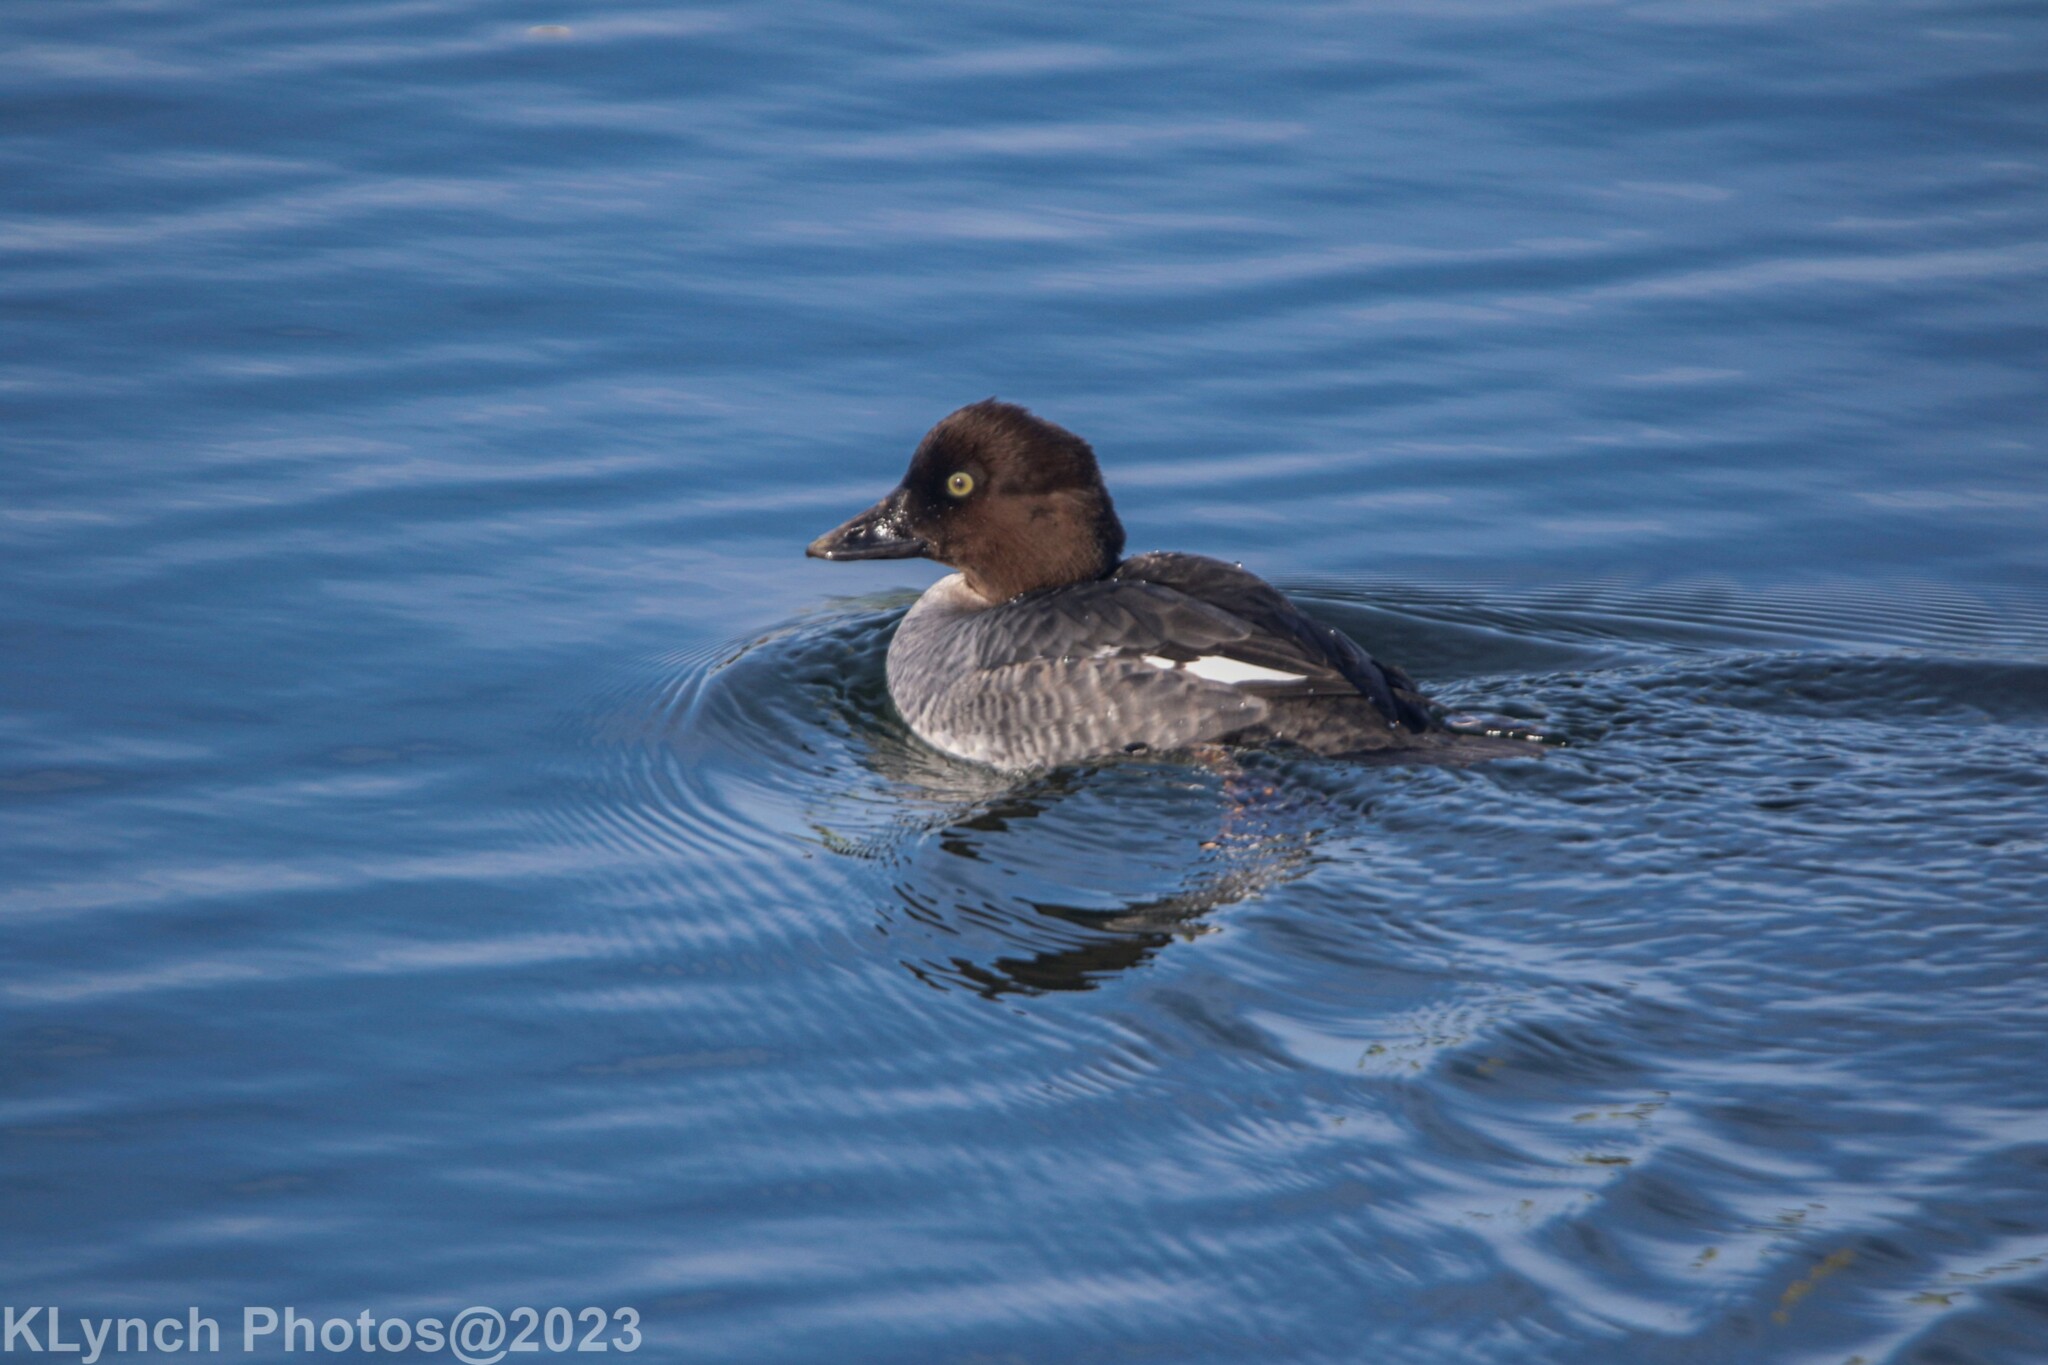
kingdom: Animalia
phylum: Chordata
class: Aves
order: Anseriformes
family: Anatidae
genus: Bucephala
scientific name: Bucephala clangula
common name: Common goldeneye
